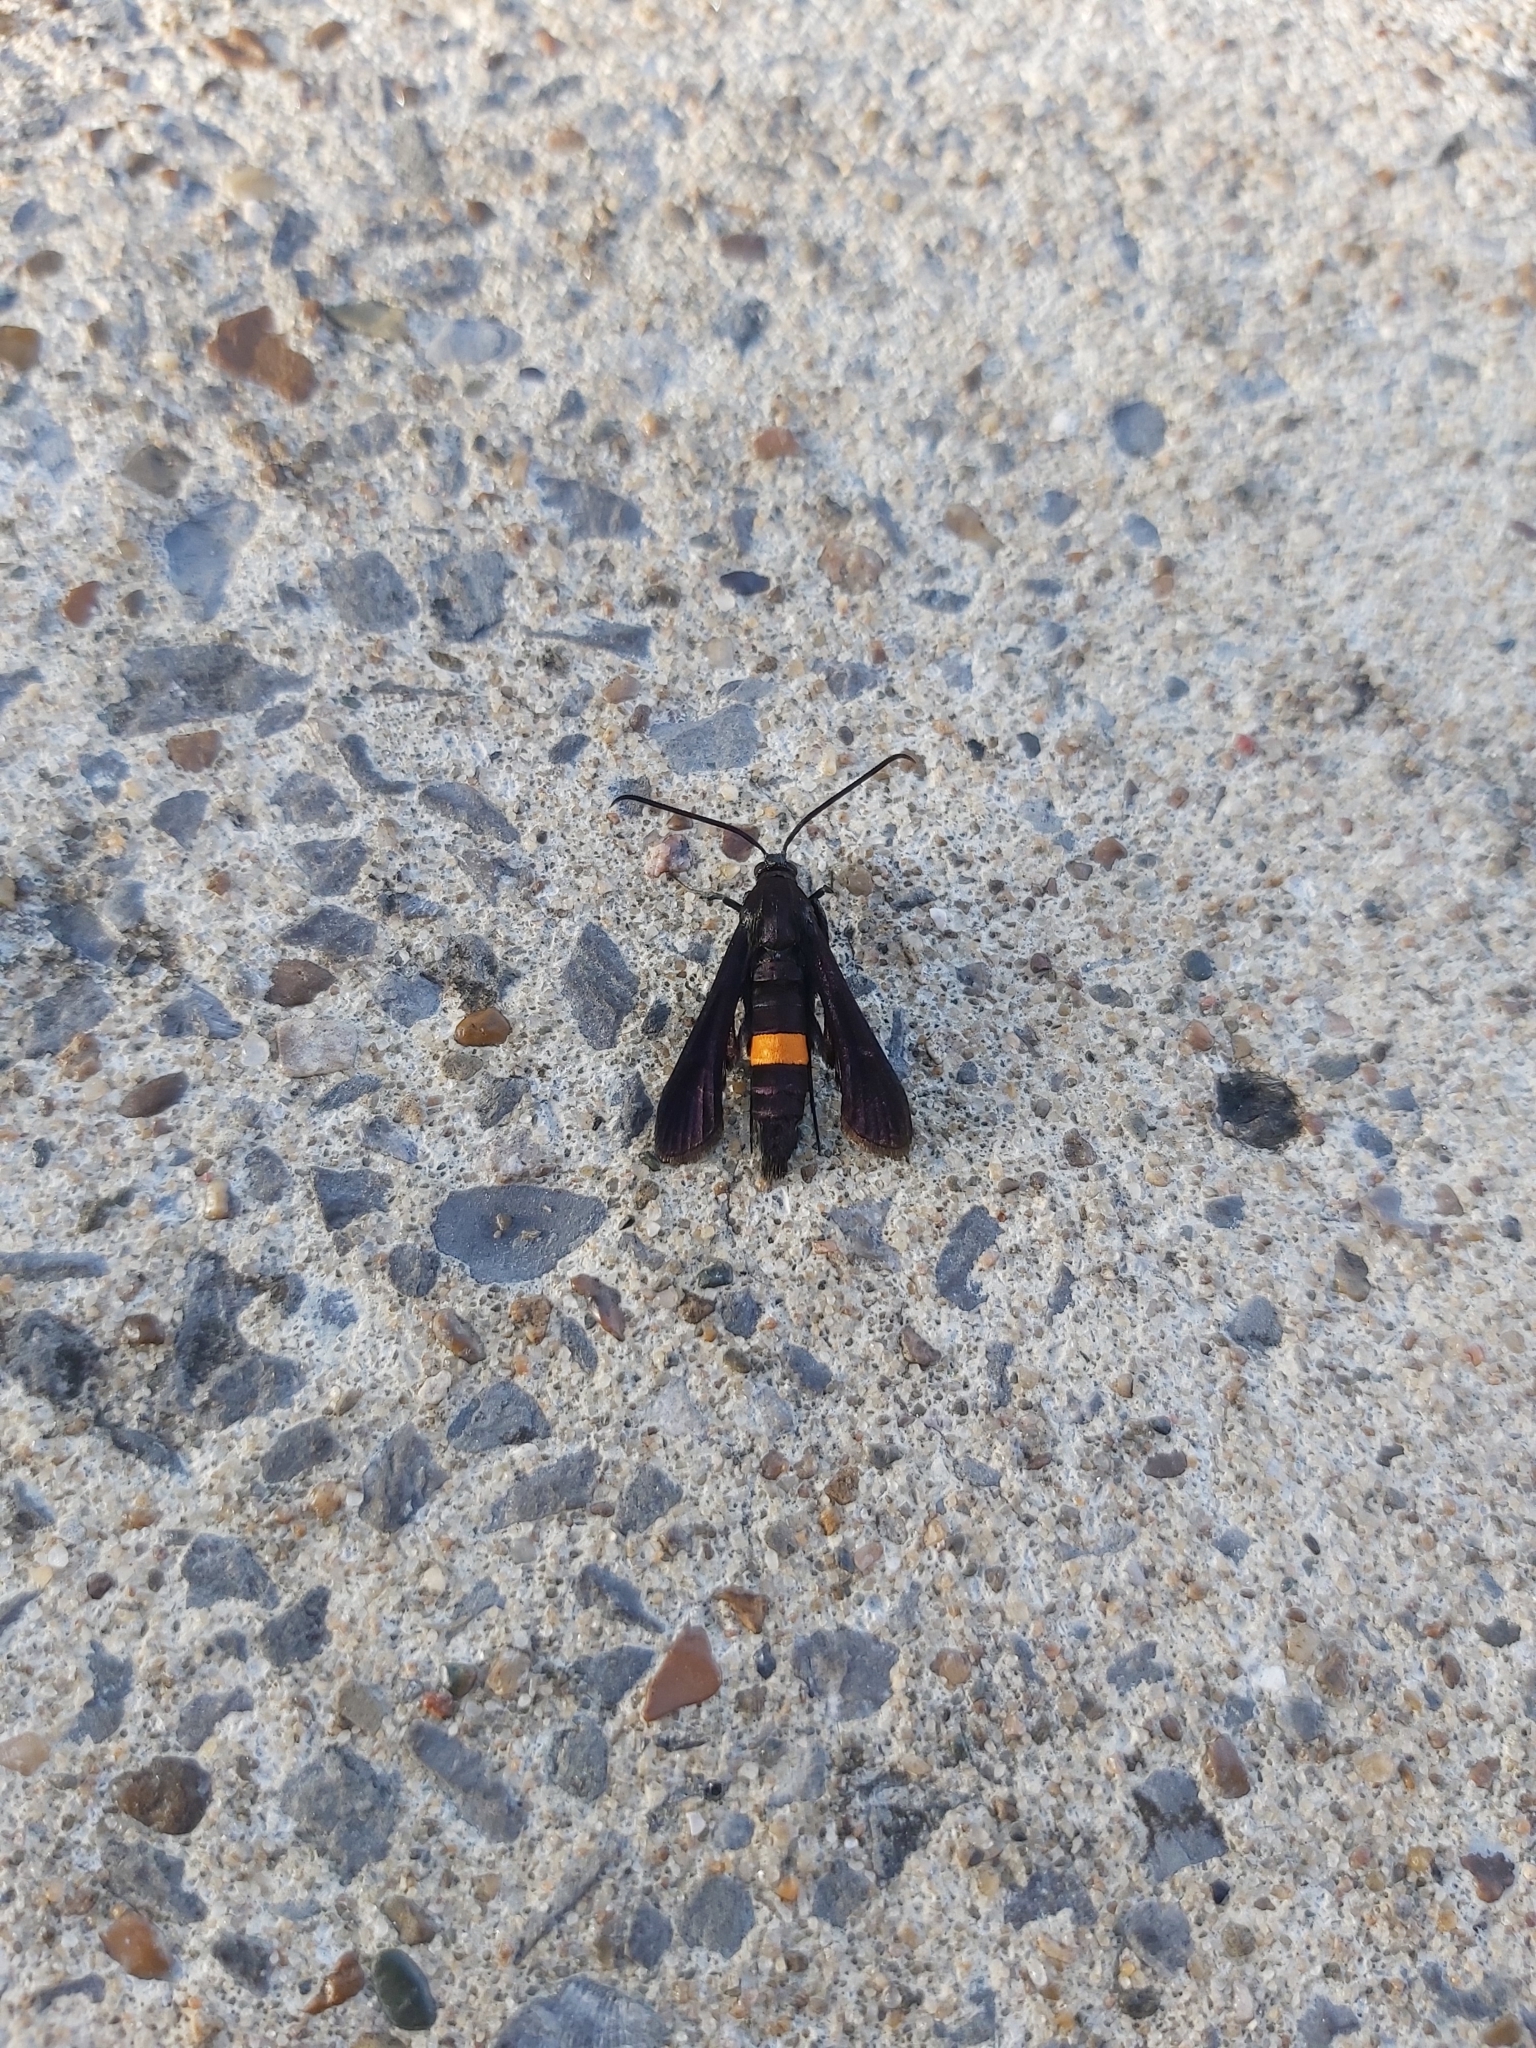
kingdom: Animalia
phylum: Arthropoda
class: Insecta
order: Lepidoptera
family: Sesiidae
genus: Synanthedon
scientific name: Synanthedon exitiosa
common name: Peachtree borer moth
